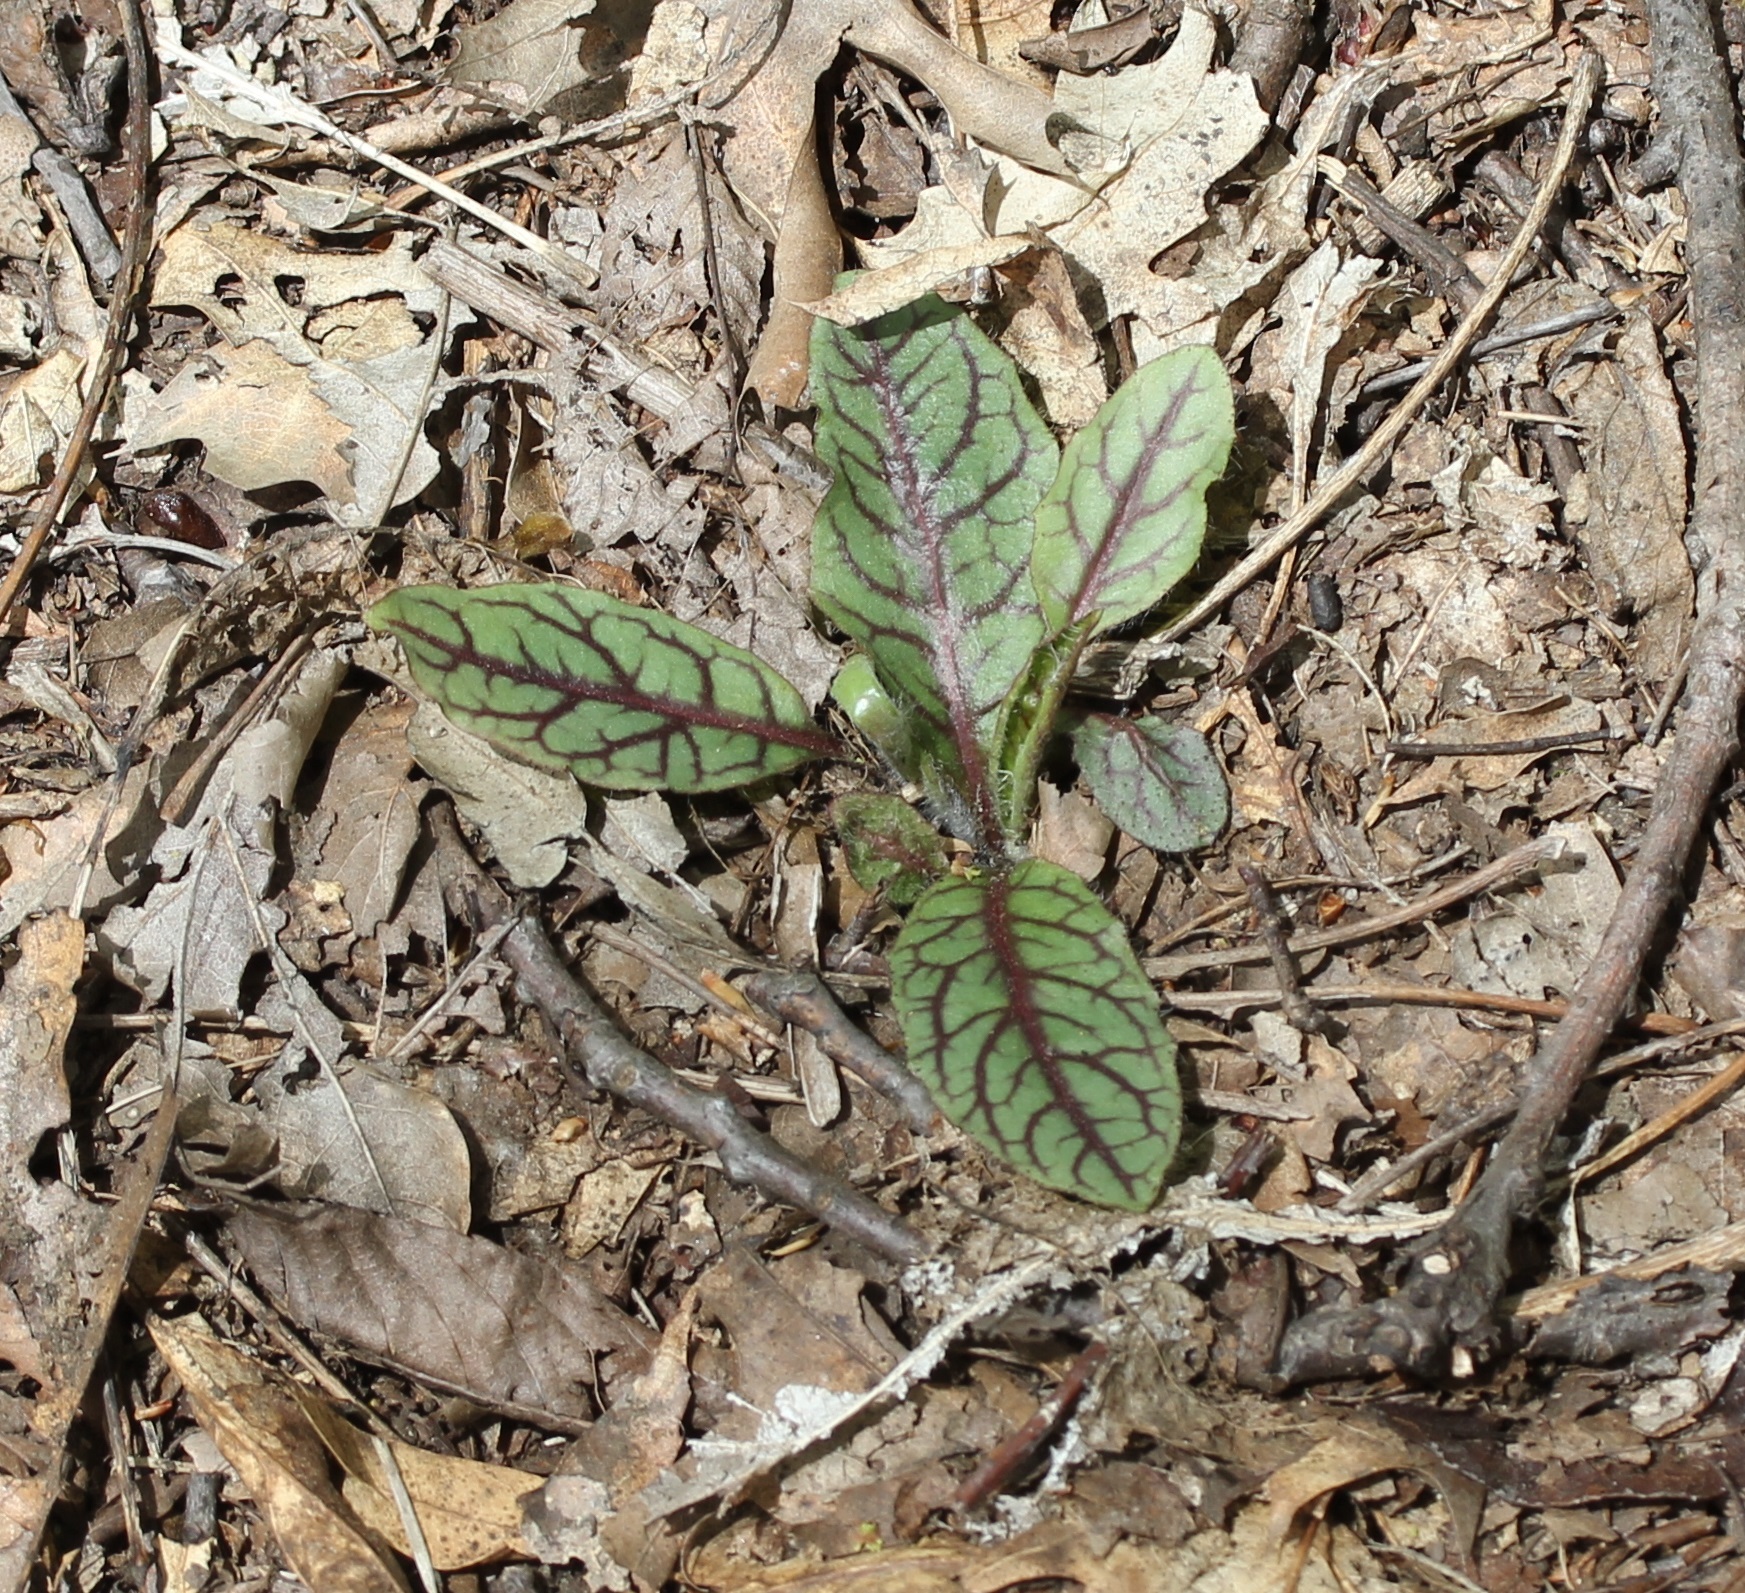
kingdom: Plantae
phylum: Tracheophyta
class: Magnoliopsida
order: Asterales
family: Asteraceae
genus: Hieracium
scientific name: Hieracium venosum
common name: Rattlesnake hawkweed
